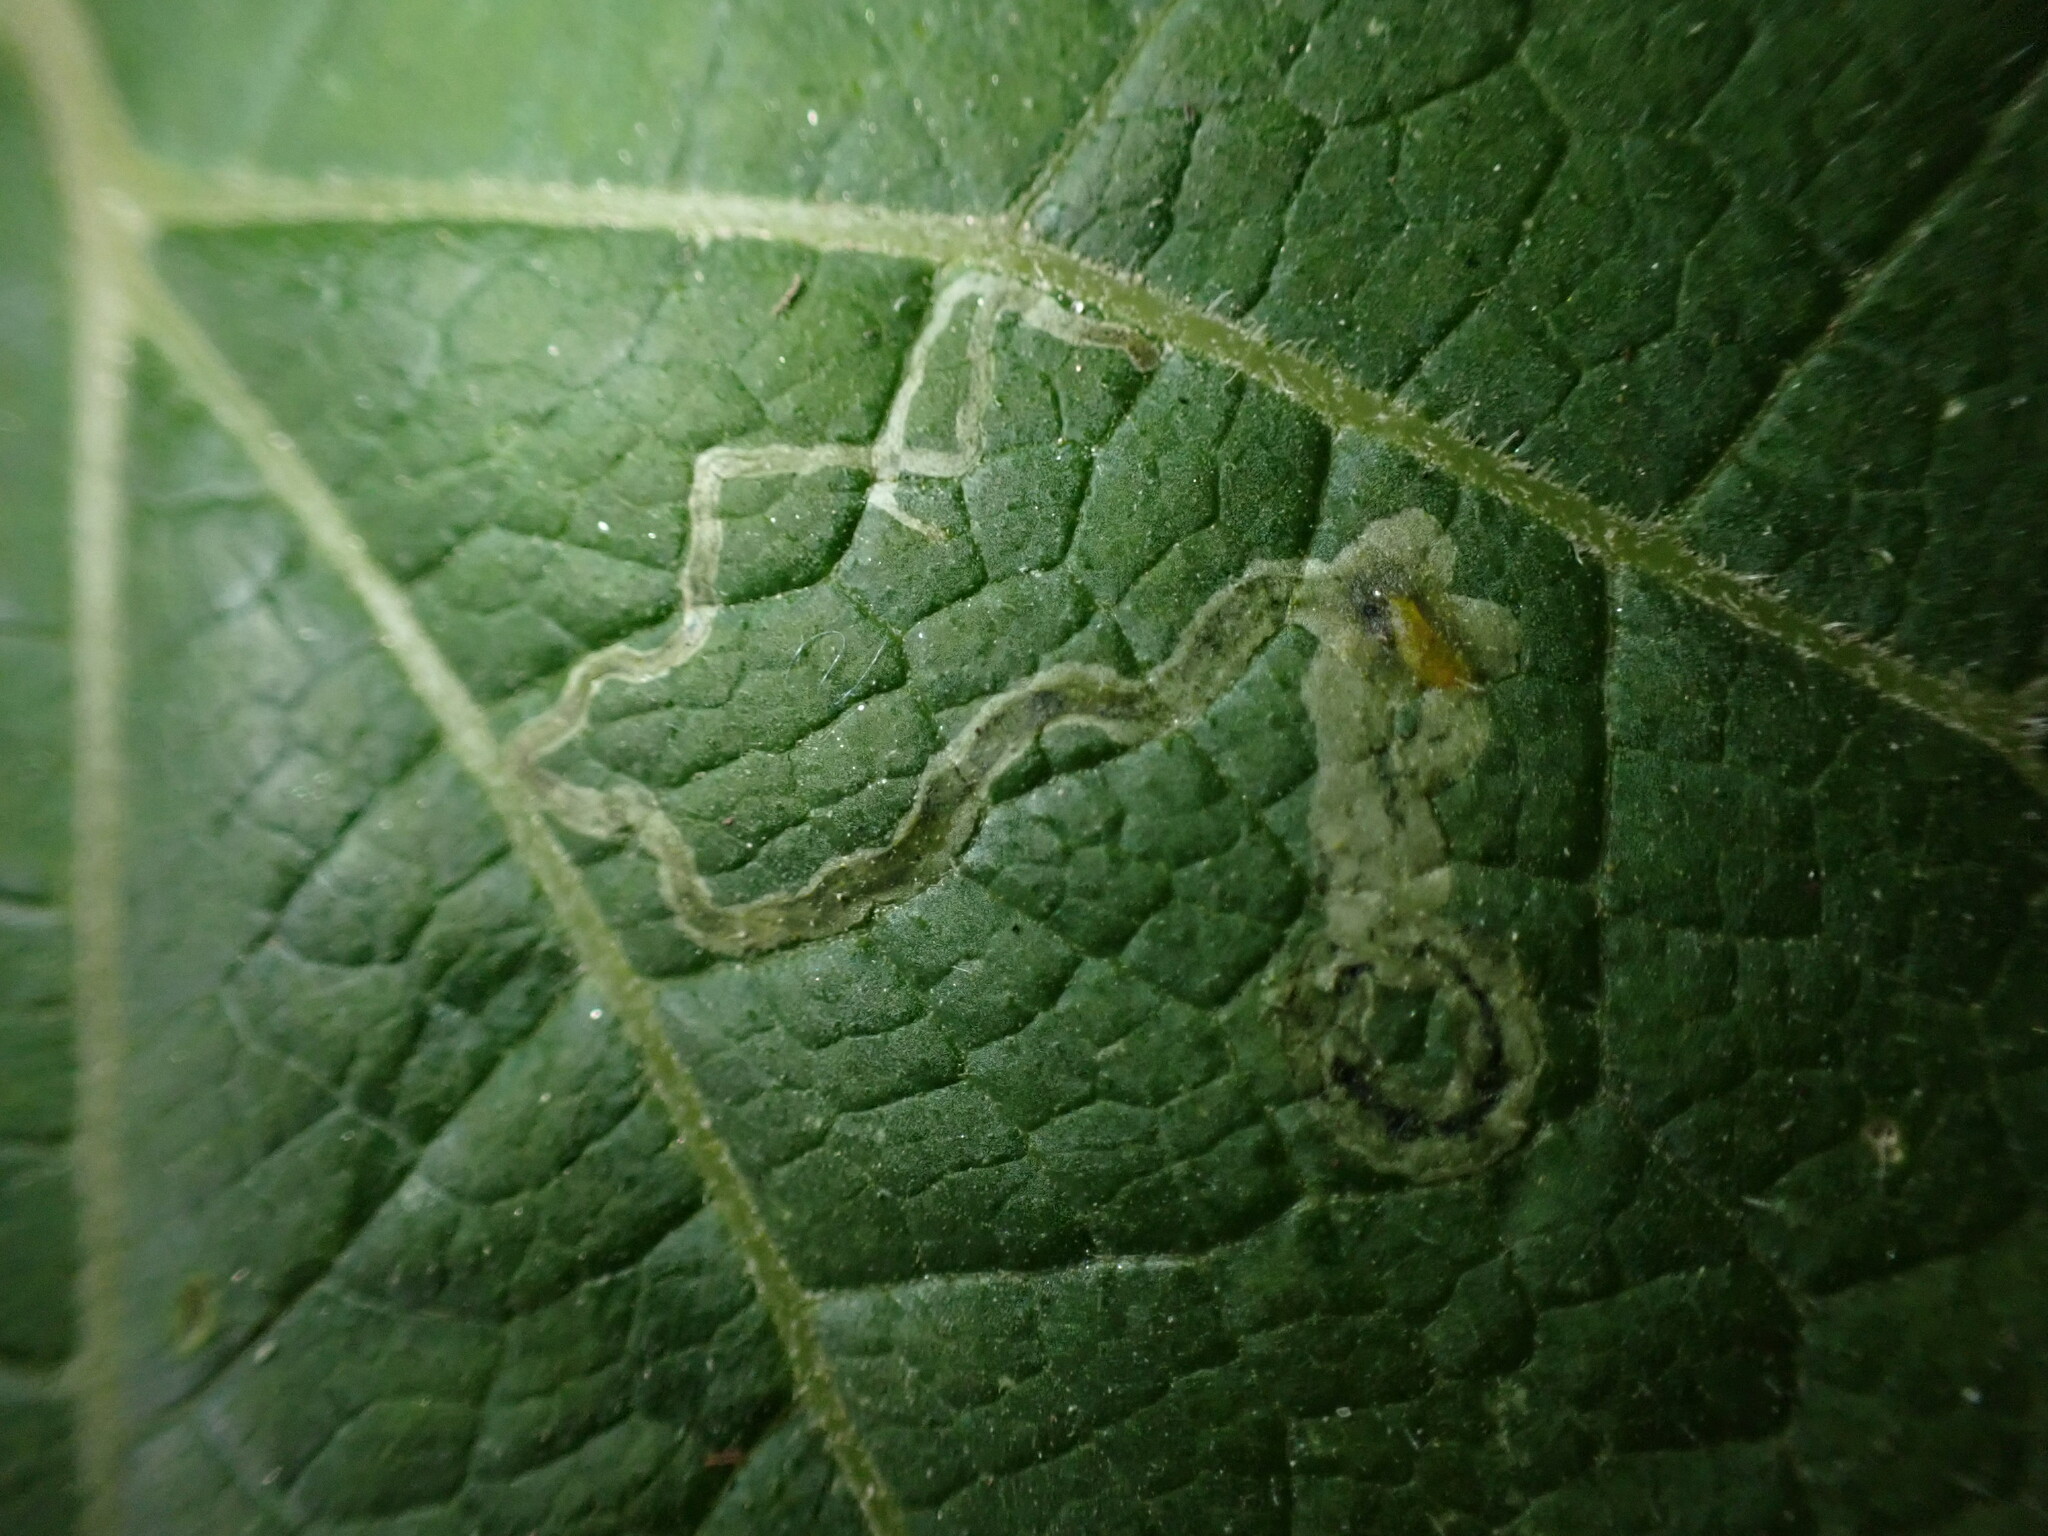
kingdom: Animalia
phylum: Arthropoda
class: Insecta
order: Diptera
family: Agromyzidae
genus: Liriomyza
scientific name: Liriomyza arctii
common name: Burdock leafminer
